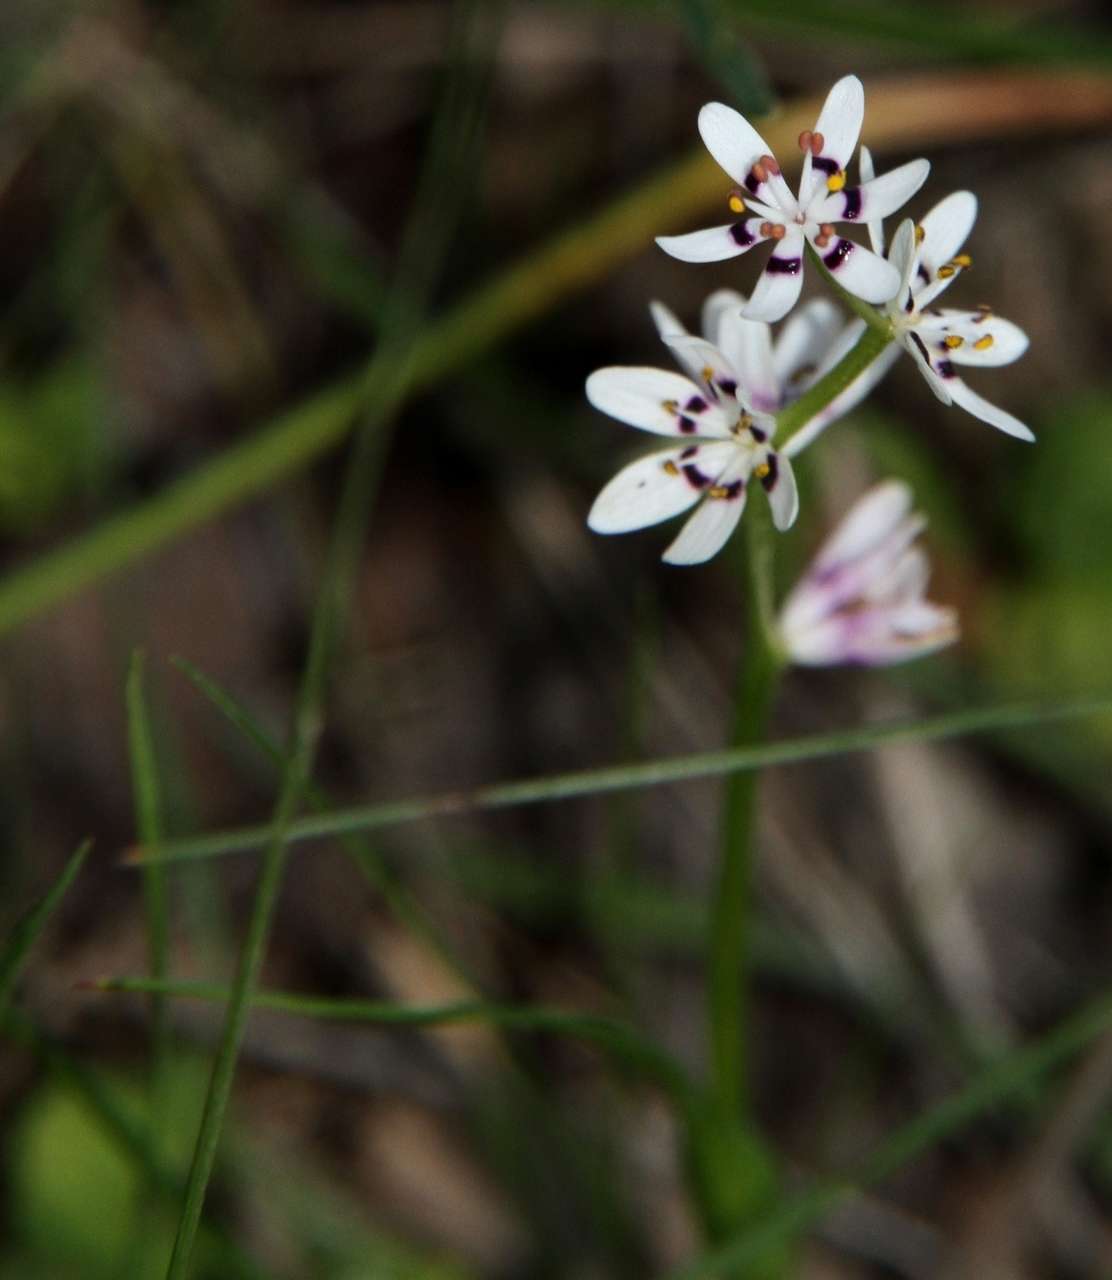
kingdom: Plantae
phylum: Tracheophyta
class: Liliopsida
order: Liliales
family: Colchicaceae
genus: Wurmbea
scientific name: Wurmbea dioica
